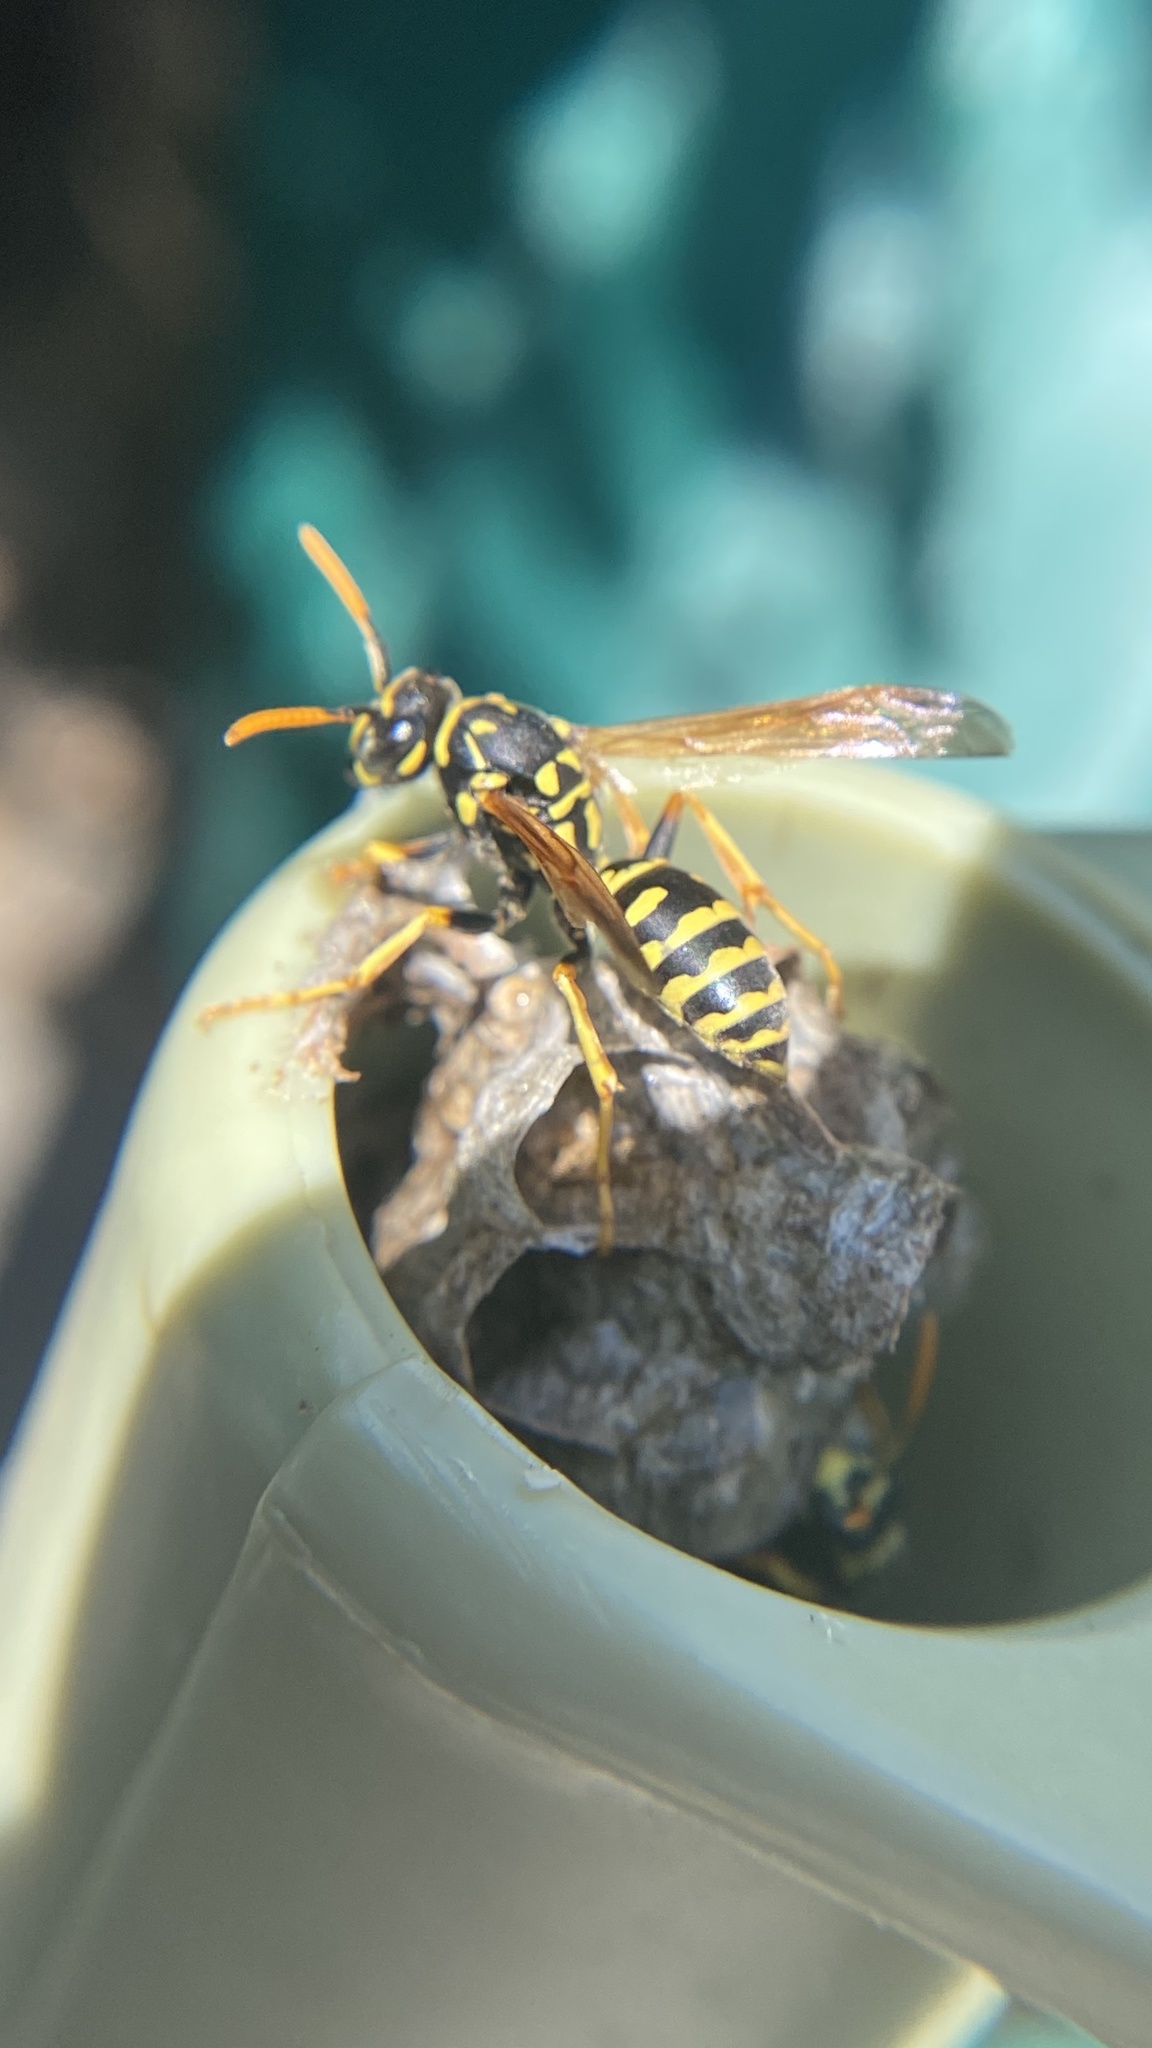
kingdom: Animalia
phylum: Arthropoda
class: Insecta
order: Hymenoptera
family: Eumenidae
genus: Polistes
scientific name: Polistes dominula
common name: Paper wasp
